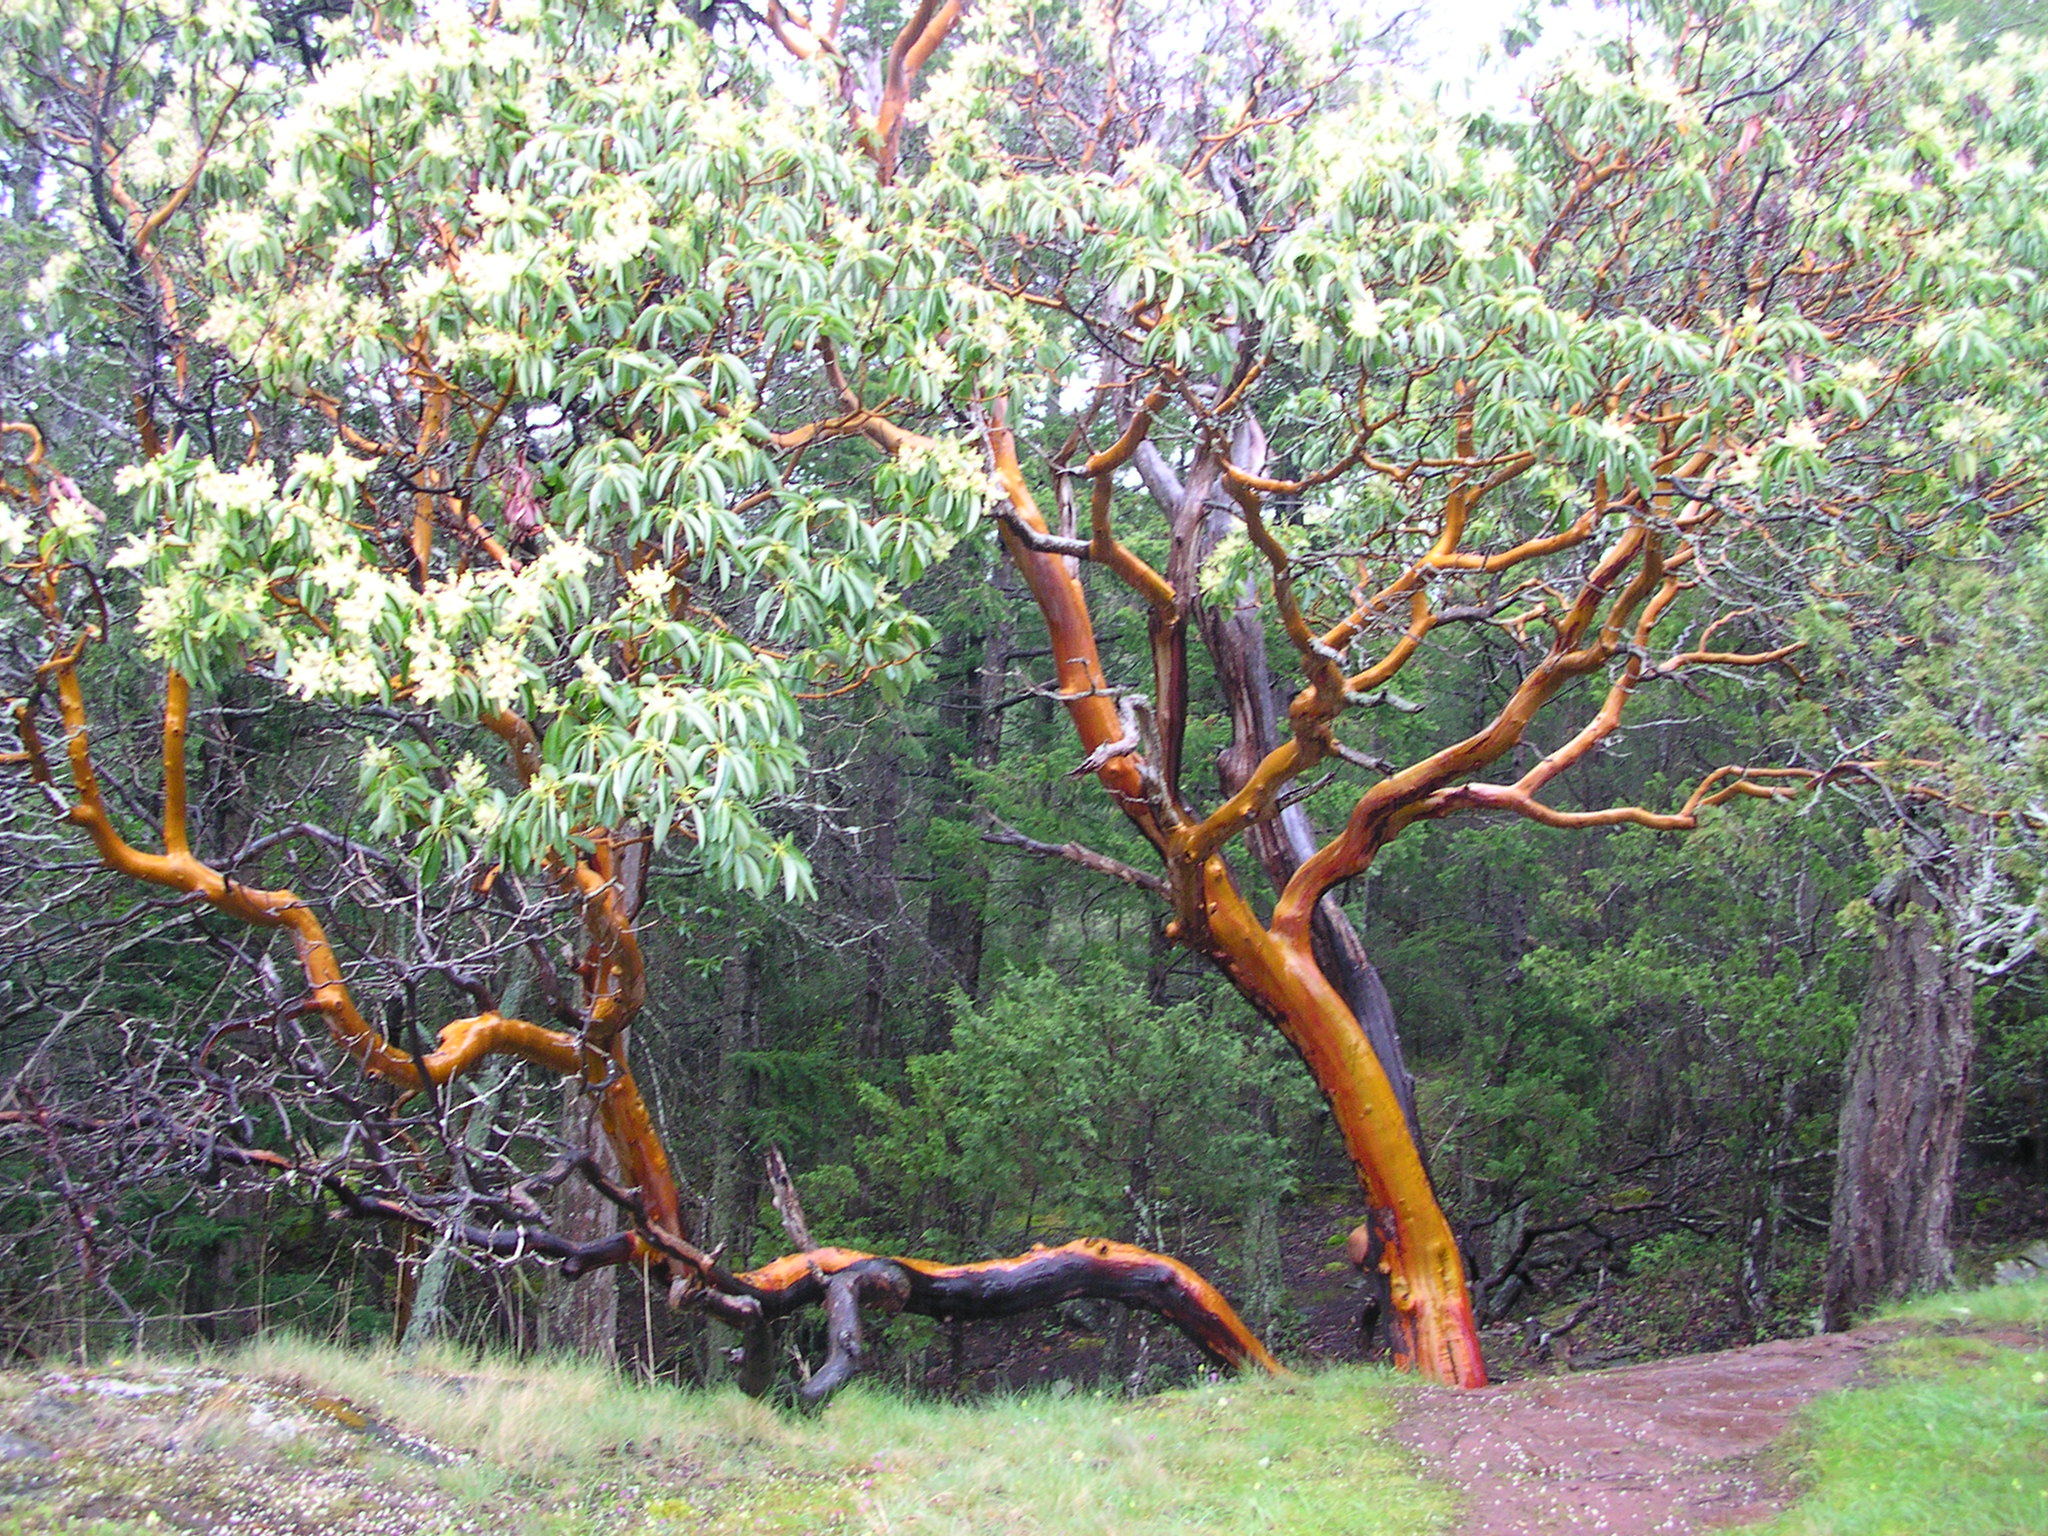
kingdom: Plantae
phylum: Tracheophyta
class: Magnoliopsida
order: Ericales
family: Ericaceae
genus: Arbutus
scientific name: Arbutus menziesii
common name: Pacific madrone
